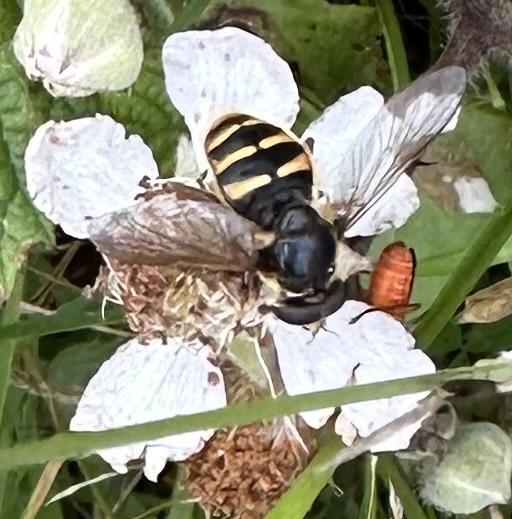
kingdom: Animalia
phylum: Arthropoda
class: Insecta
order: Diptera
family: Syrphidae
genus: Sericomyia
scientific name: Sericomyia silentis
